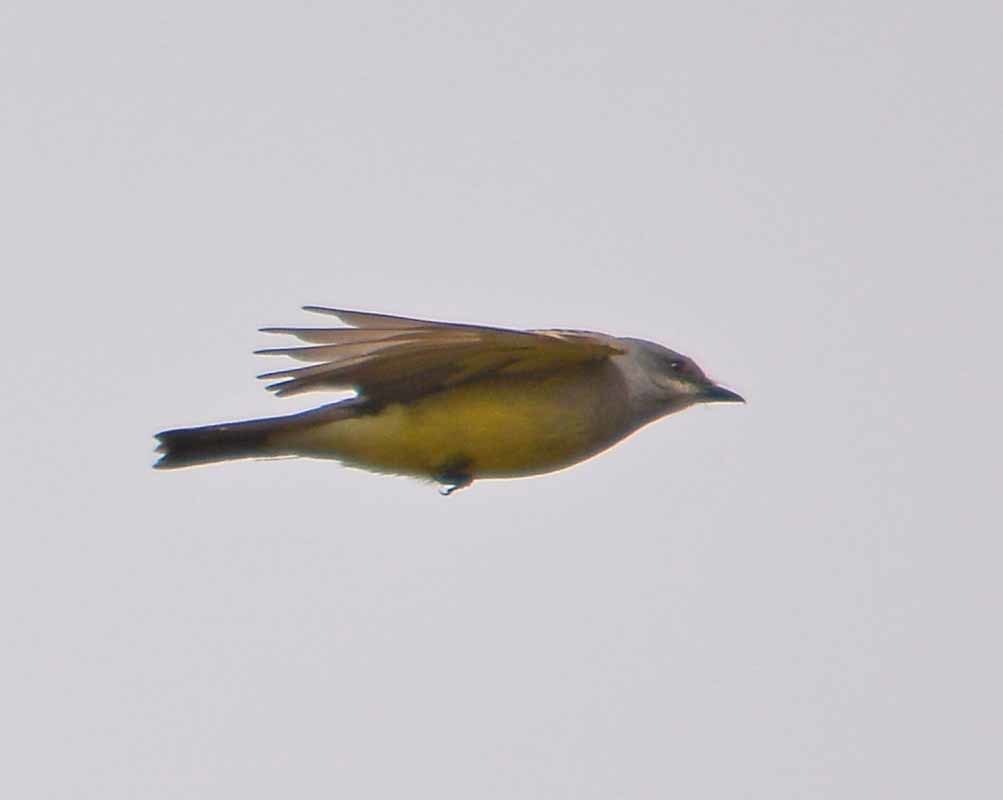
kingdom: Animalia
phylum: Chordata
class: Aves
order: Passeriformes
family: Tyrannidae
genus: Tyrannus
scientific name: Tyrannus vociferans
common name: Cassin's kingbird
